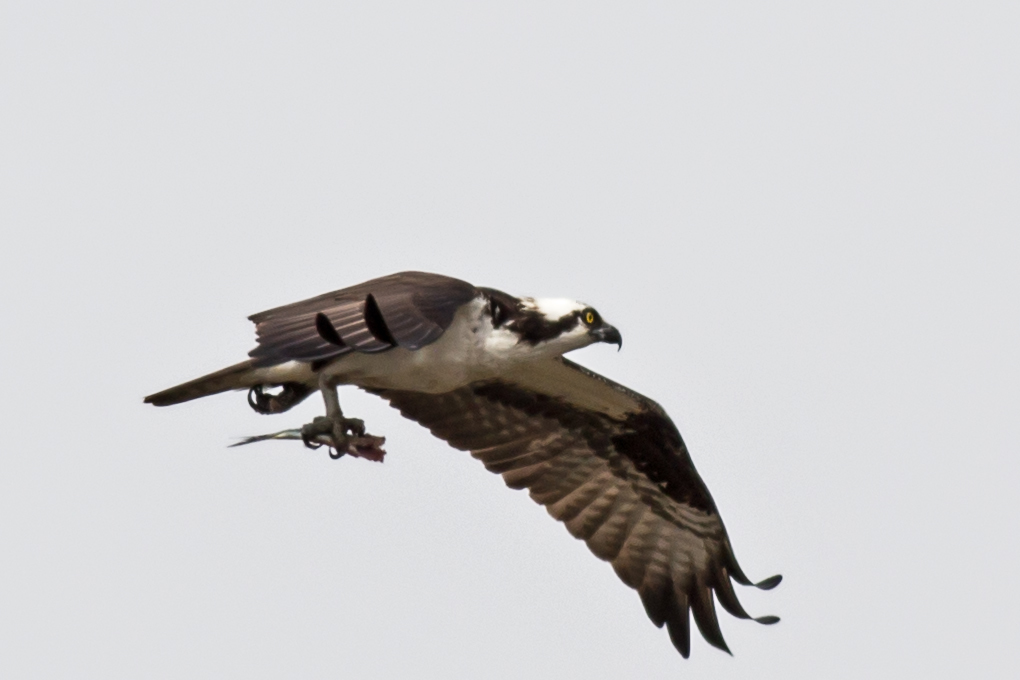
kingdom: Animalia
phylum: Chordata
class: Aves
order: Accipitriformes
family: Pandionidae
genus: Pandion
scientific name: Pandion haliaetus
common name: Osprey
